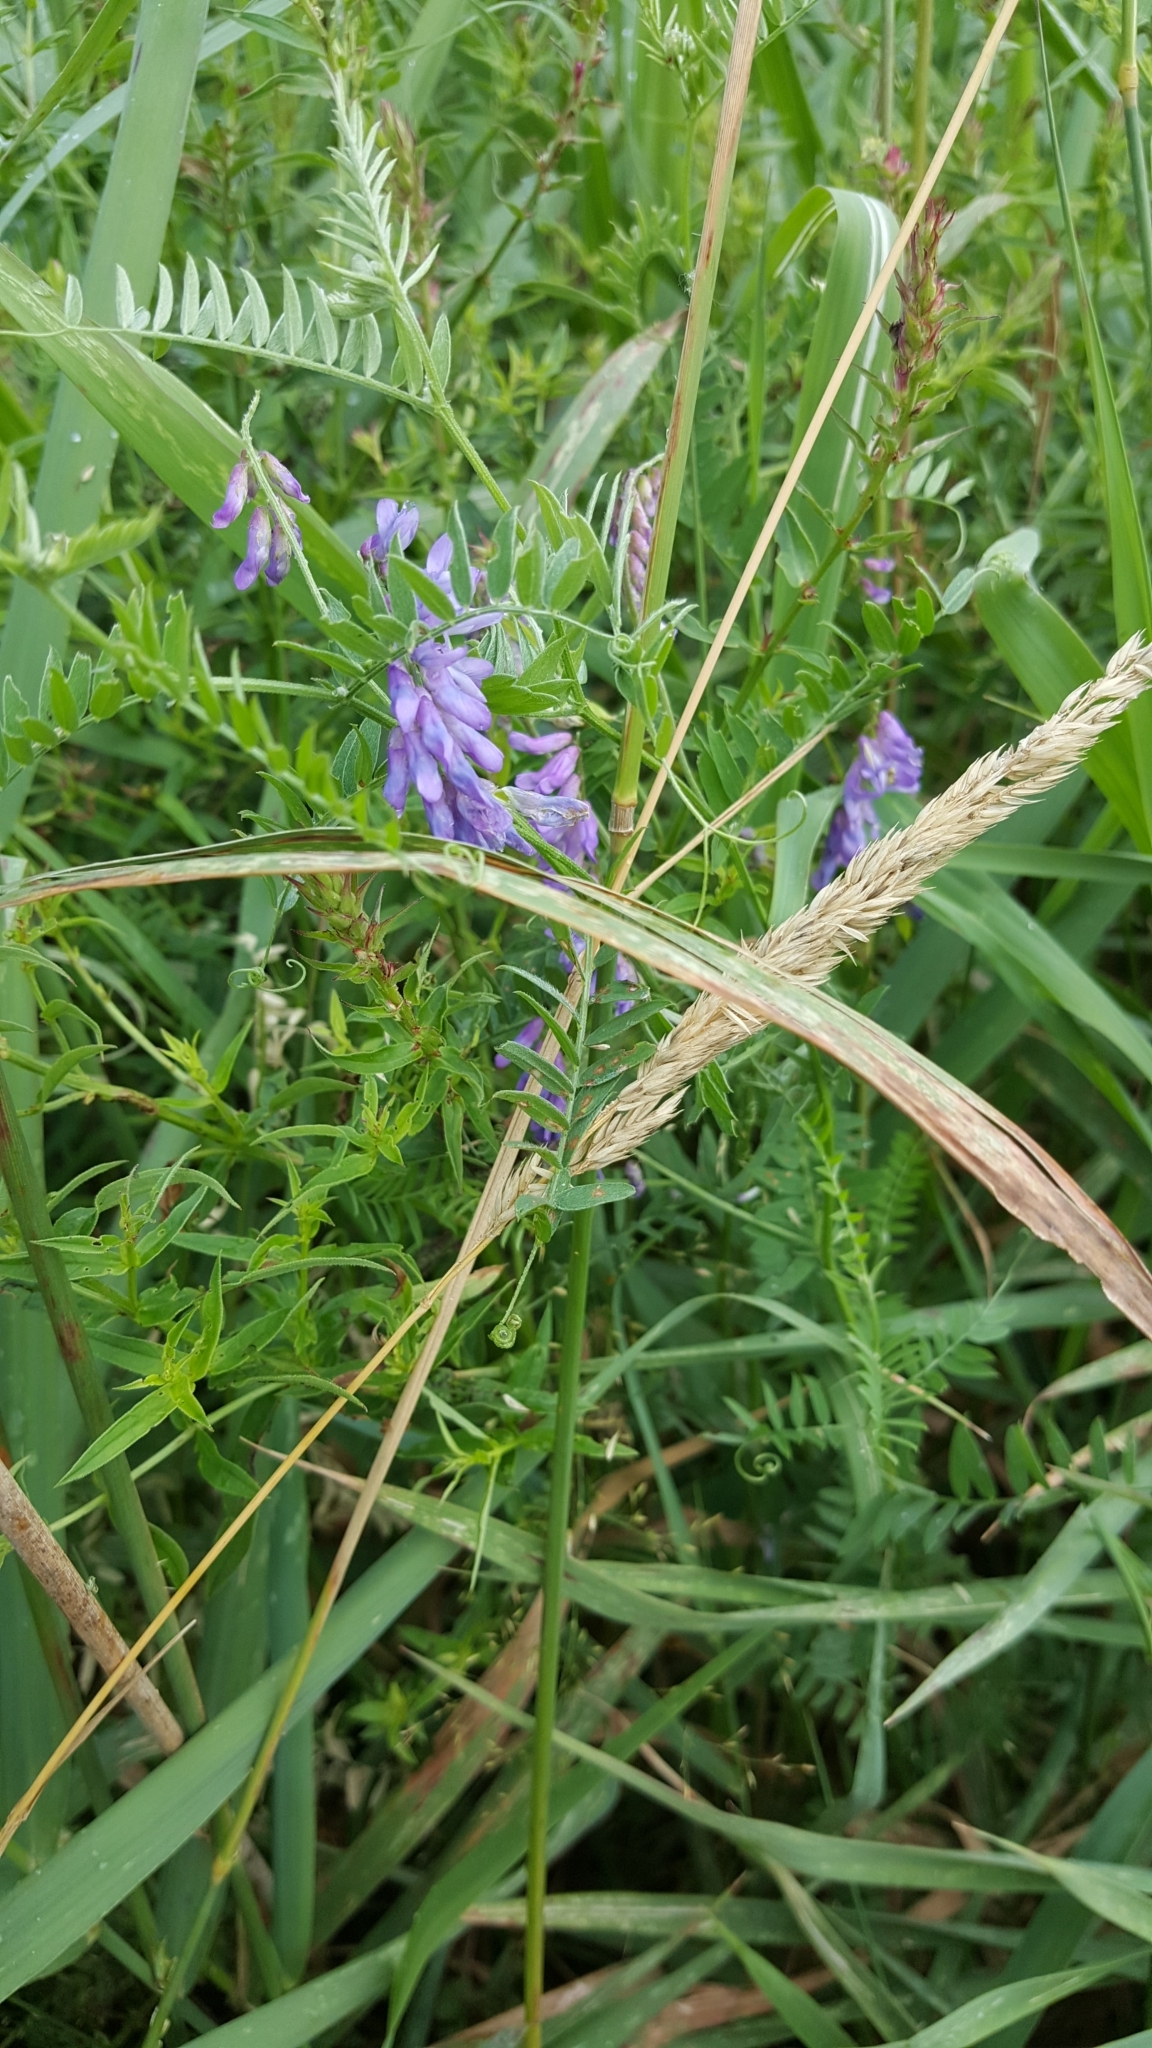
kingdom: Plantae
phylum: Tracheophyta
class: Magnoliopsida
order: Fabales
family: Fabaceae
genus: Vicia
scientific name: Vicia cracca
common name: Bird vetch
